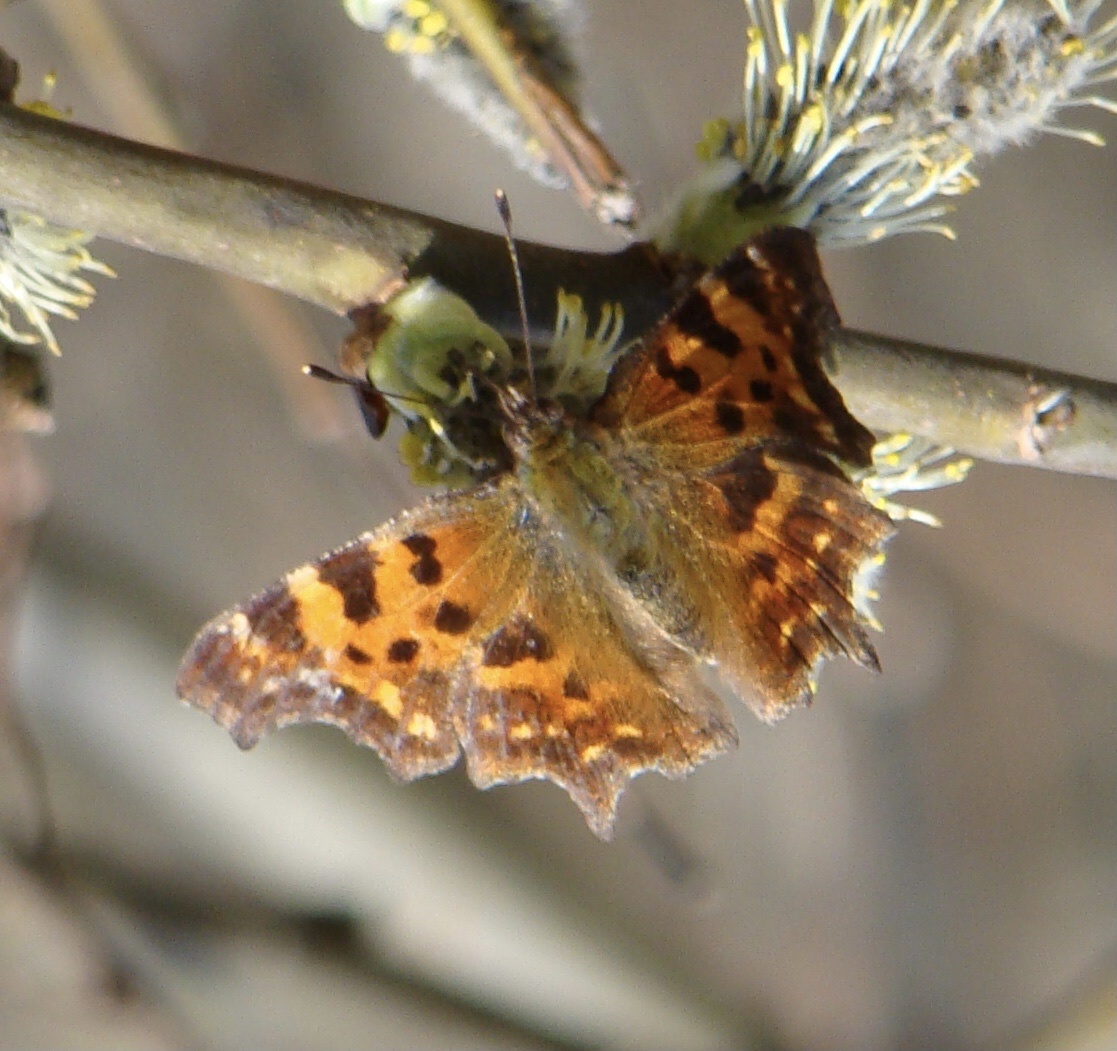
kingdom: Animalia
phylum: Arthropoda
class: Insecta
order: Lepidoptera
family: Nymphalidae
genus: Polygonia
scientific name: Polygonia c-album
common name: Comma
